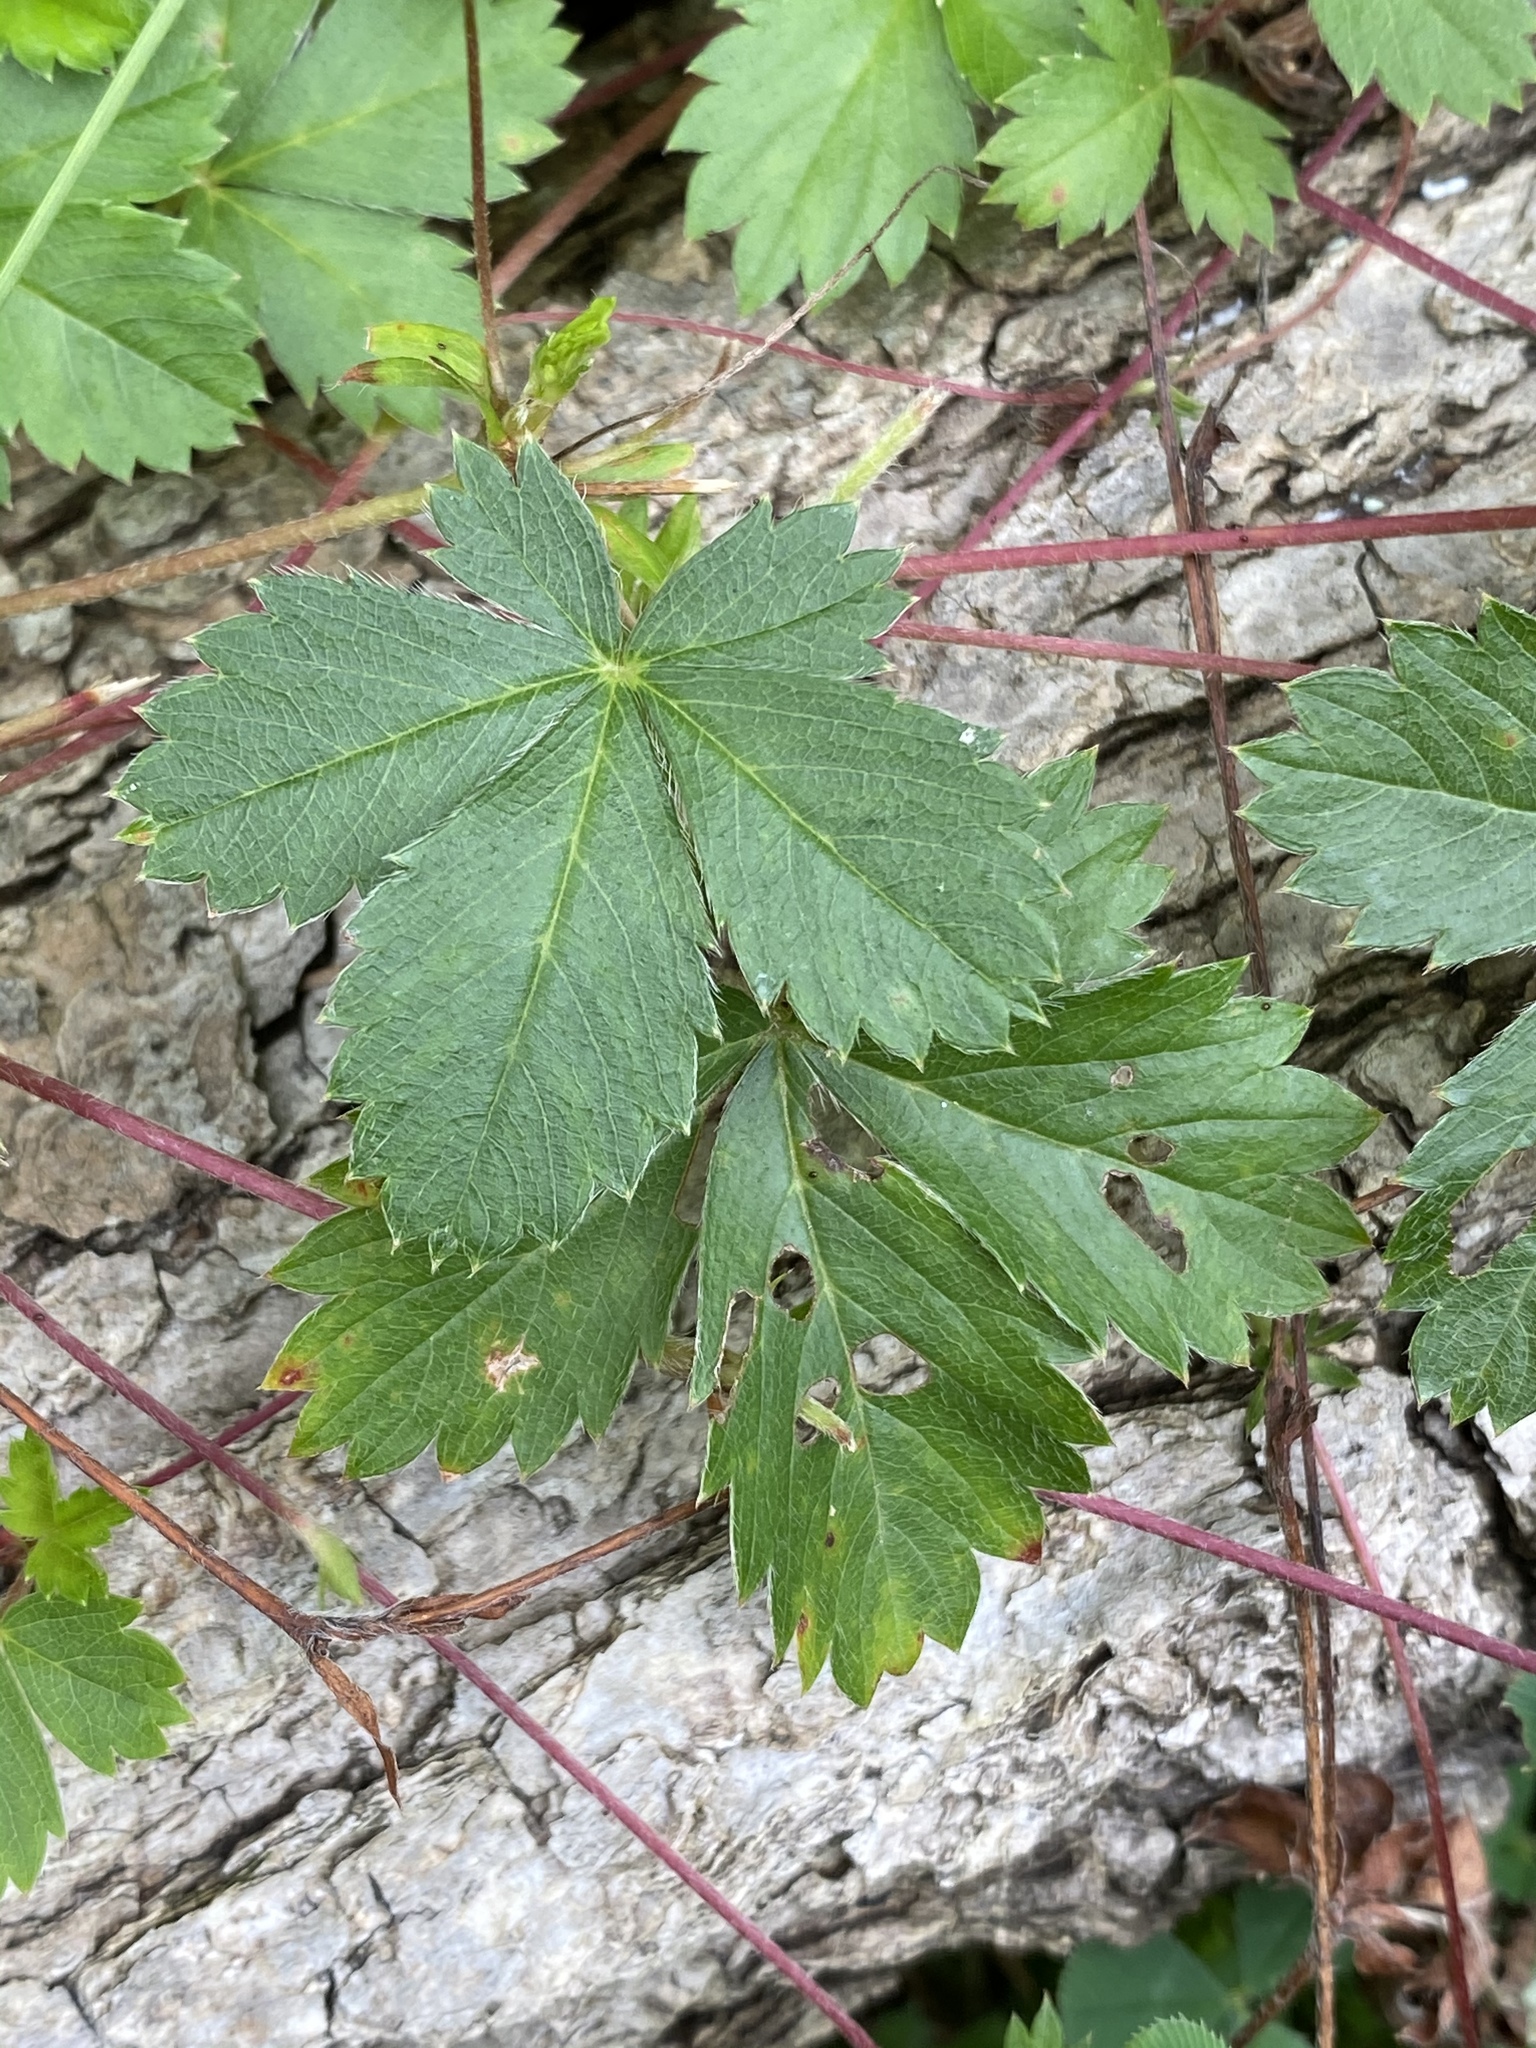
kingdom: Plantae
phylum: Tracheophyta
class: Magnoliopsida
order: Rosales
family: Rosaceae
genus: Potentilla
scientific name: Potentilla canadensis
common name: Canada cinquefoil
